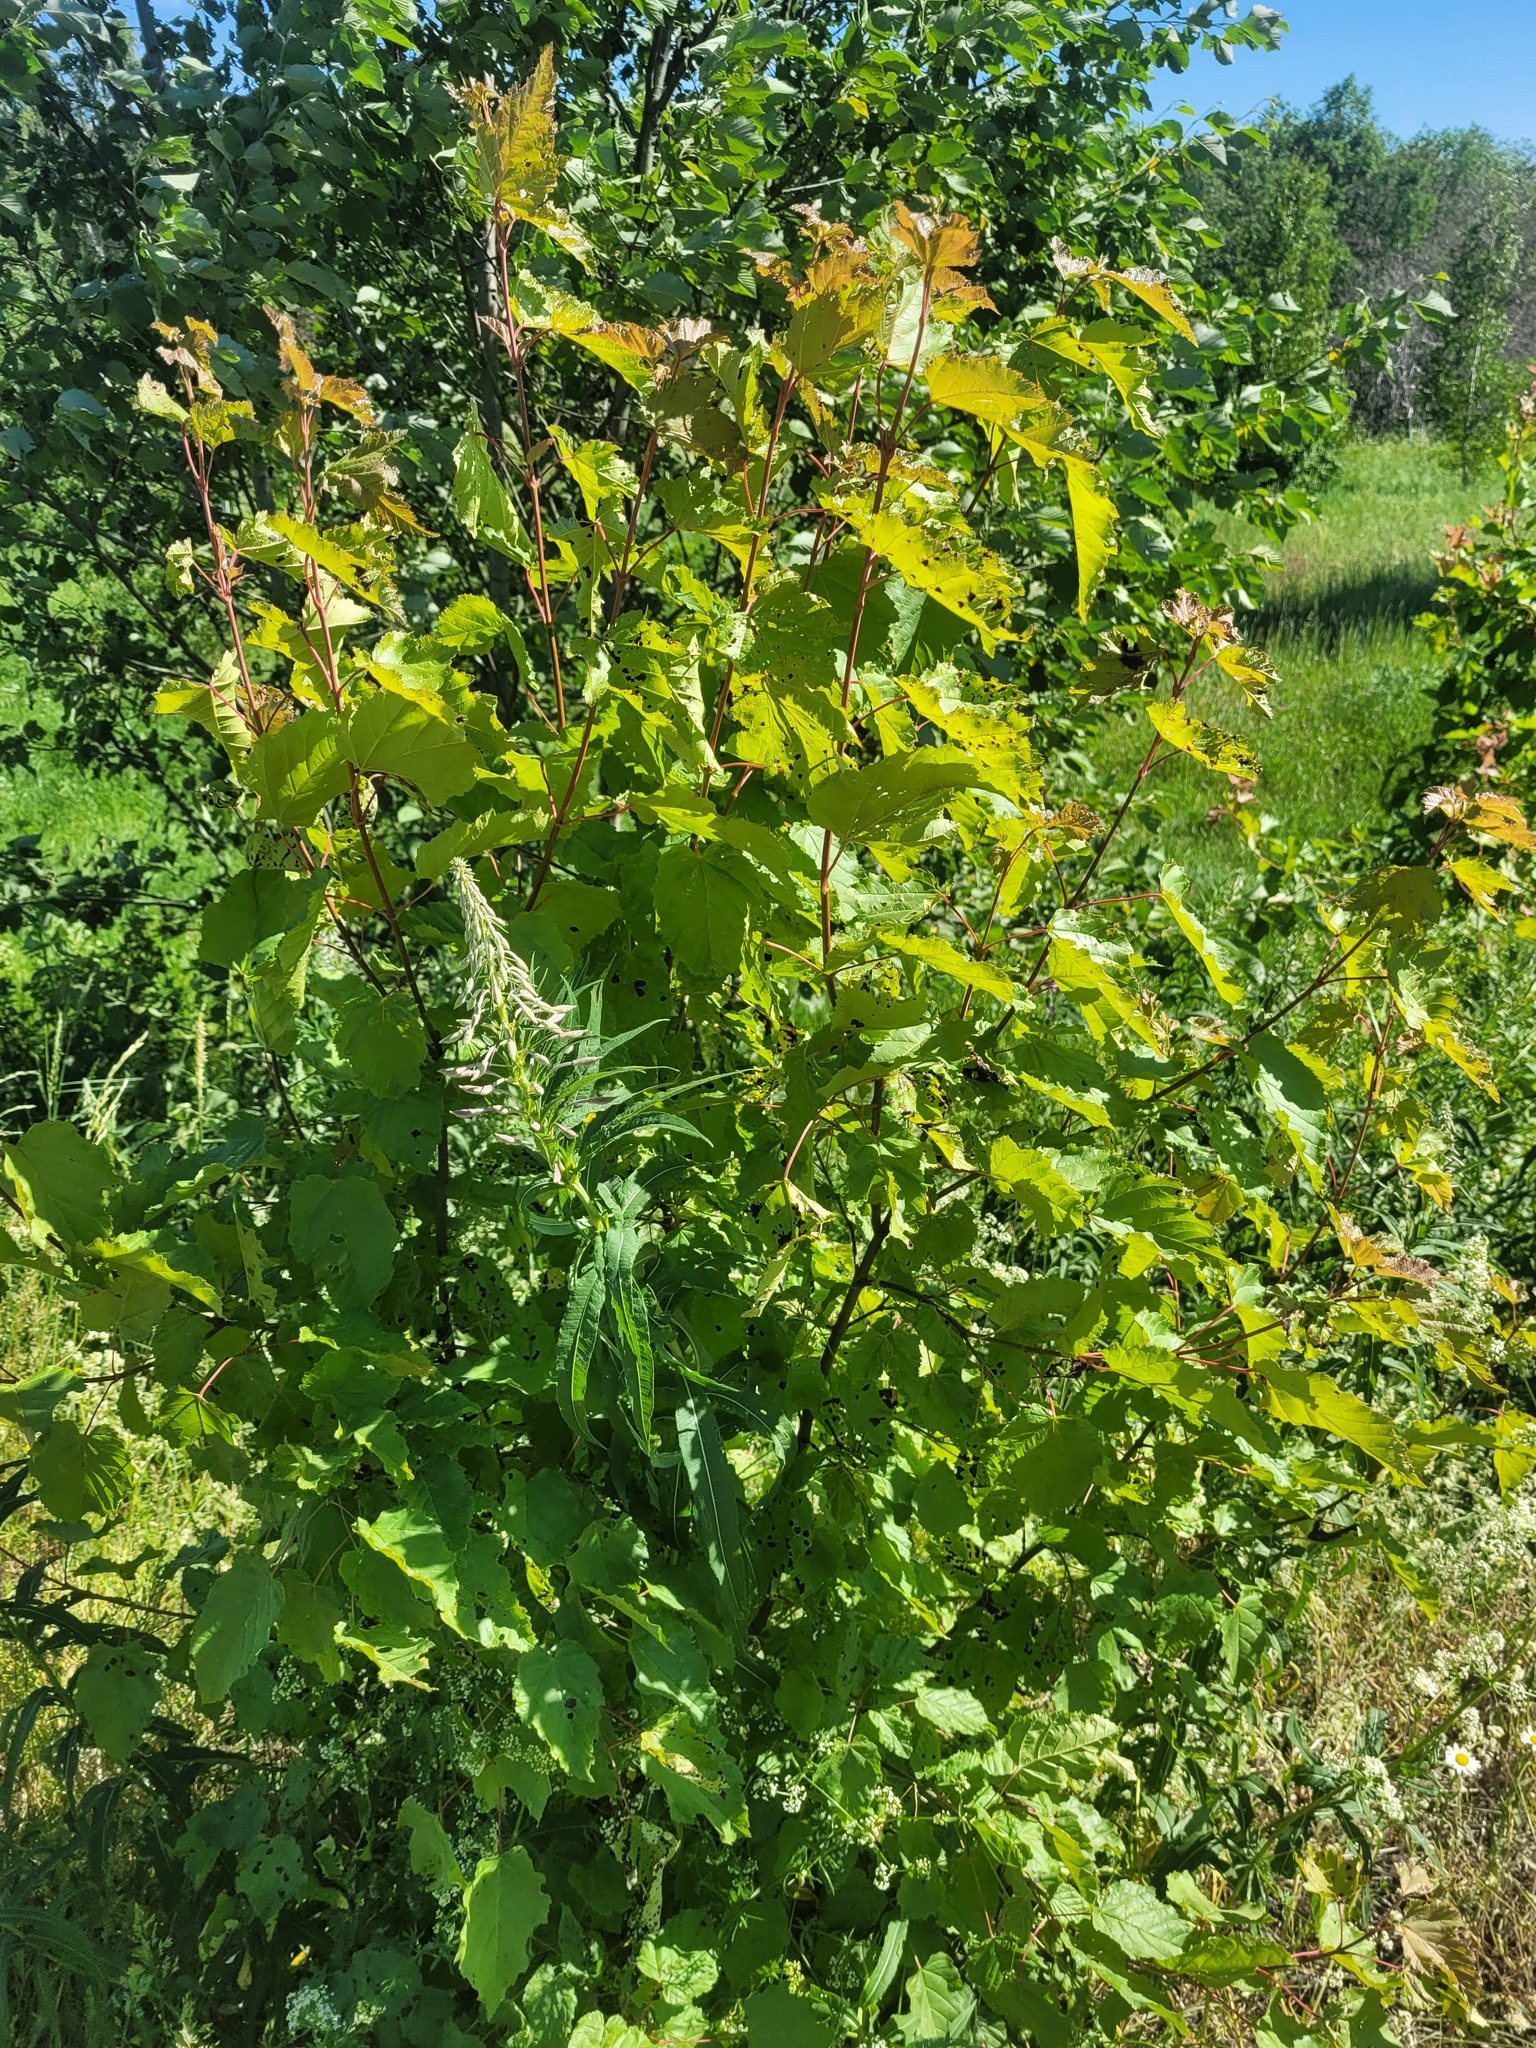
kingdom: Plantae
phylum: Tracheophyta
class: Magnoliopsida
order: Sapindales
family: Sapindaceae
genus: Acer
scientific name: Acer tataricum
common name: Tartar maple
